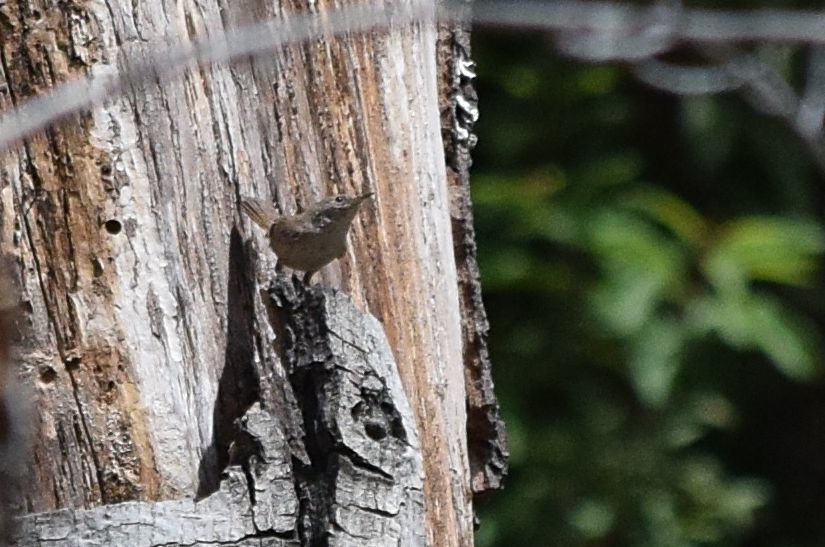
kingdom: Animalia
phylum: Chordata
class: Aves
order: Passeriformes
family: Troglodytidae
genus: Troglodytes
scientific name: Troglodytes aedon
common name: House wren
